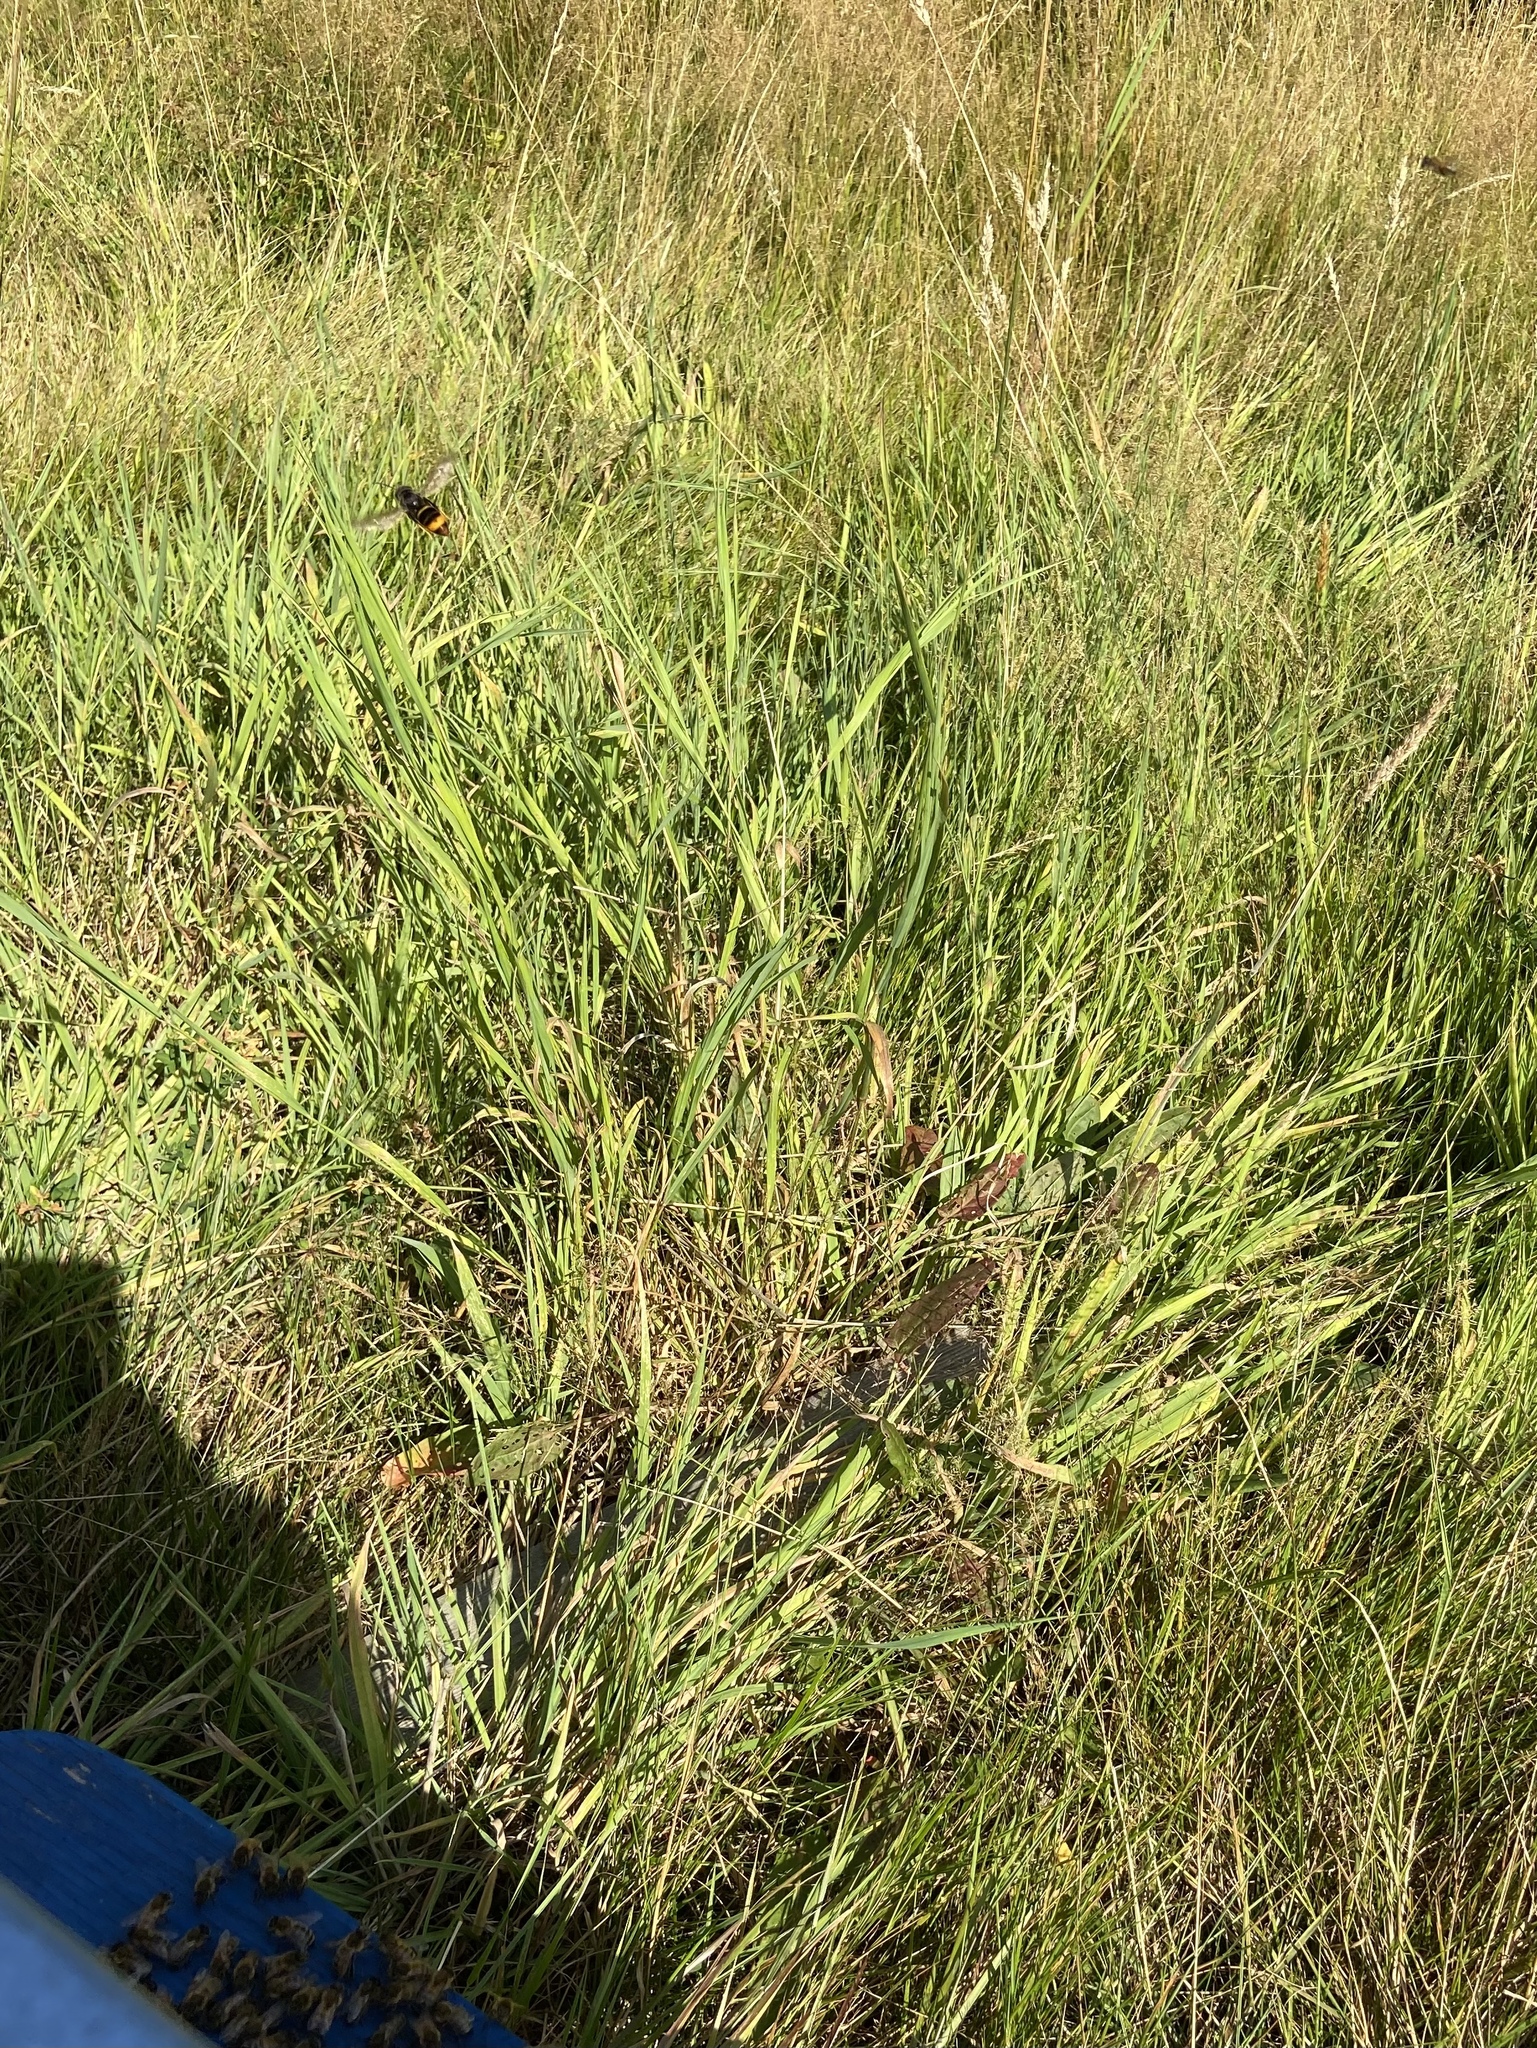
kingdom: Animalia
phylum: Arthropoda
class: Insecta
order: Hymenoptera
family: Vespidae
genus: Vespa
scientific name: Vespa velutina
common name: Asian hornet
